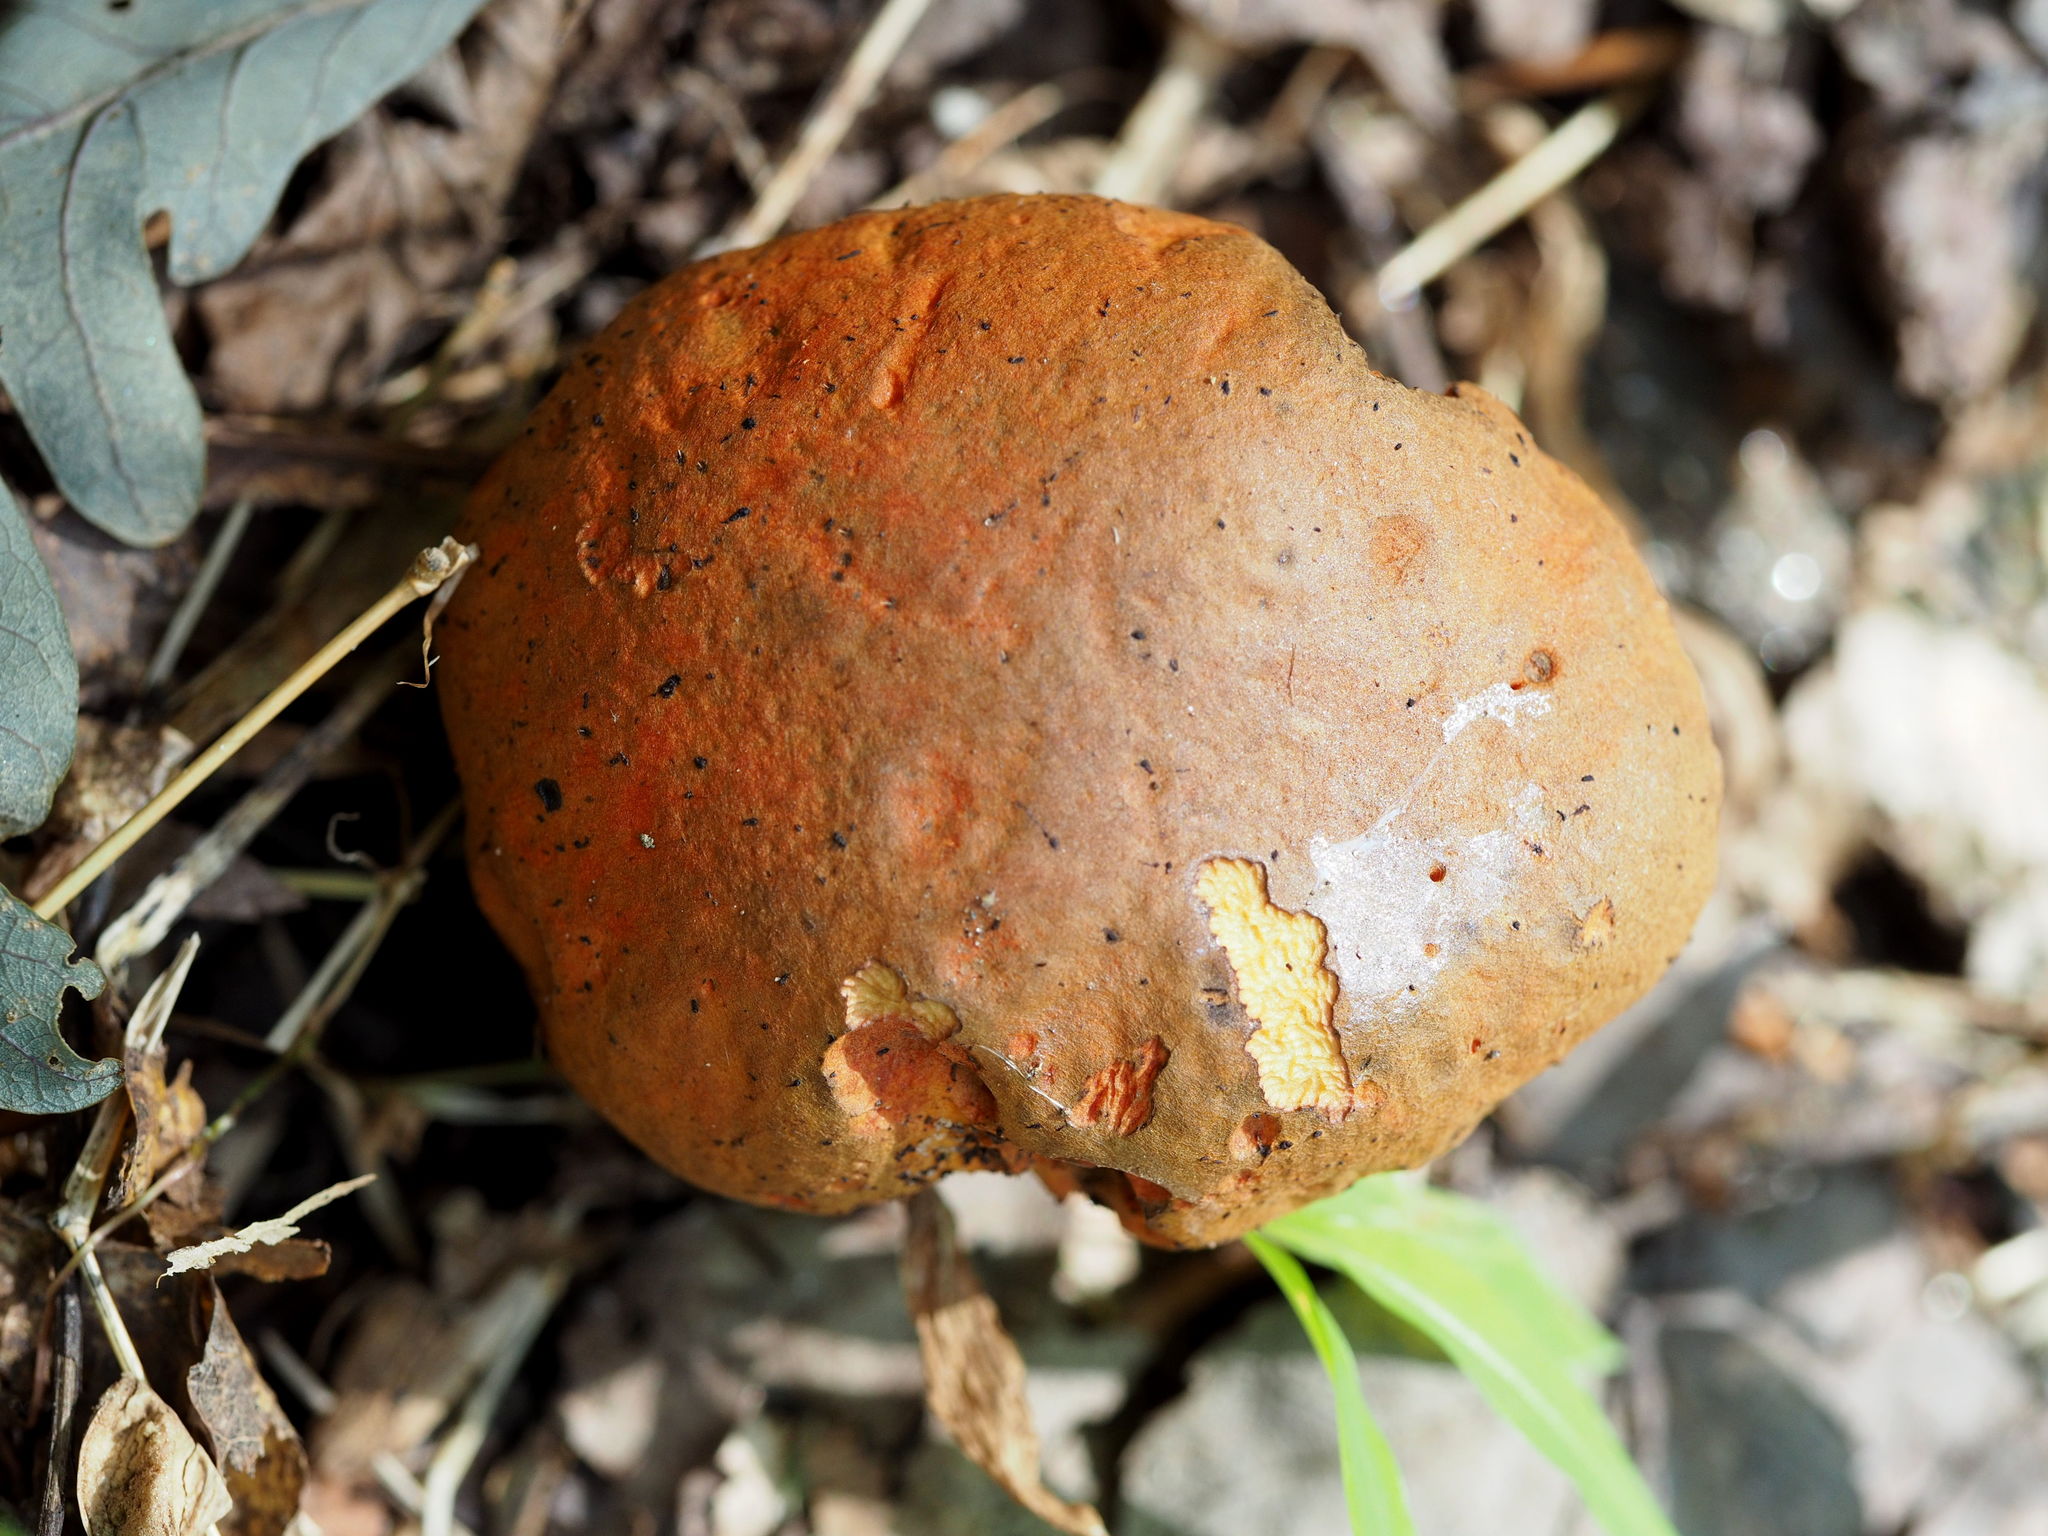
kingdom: Fungi
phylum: Basidiomycota
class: Agaricomycetes
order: Boletales
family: Boletaceae
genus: Tylopilus
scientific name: Tylopilus balloui
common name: Burnt-orange bolete
